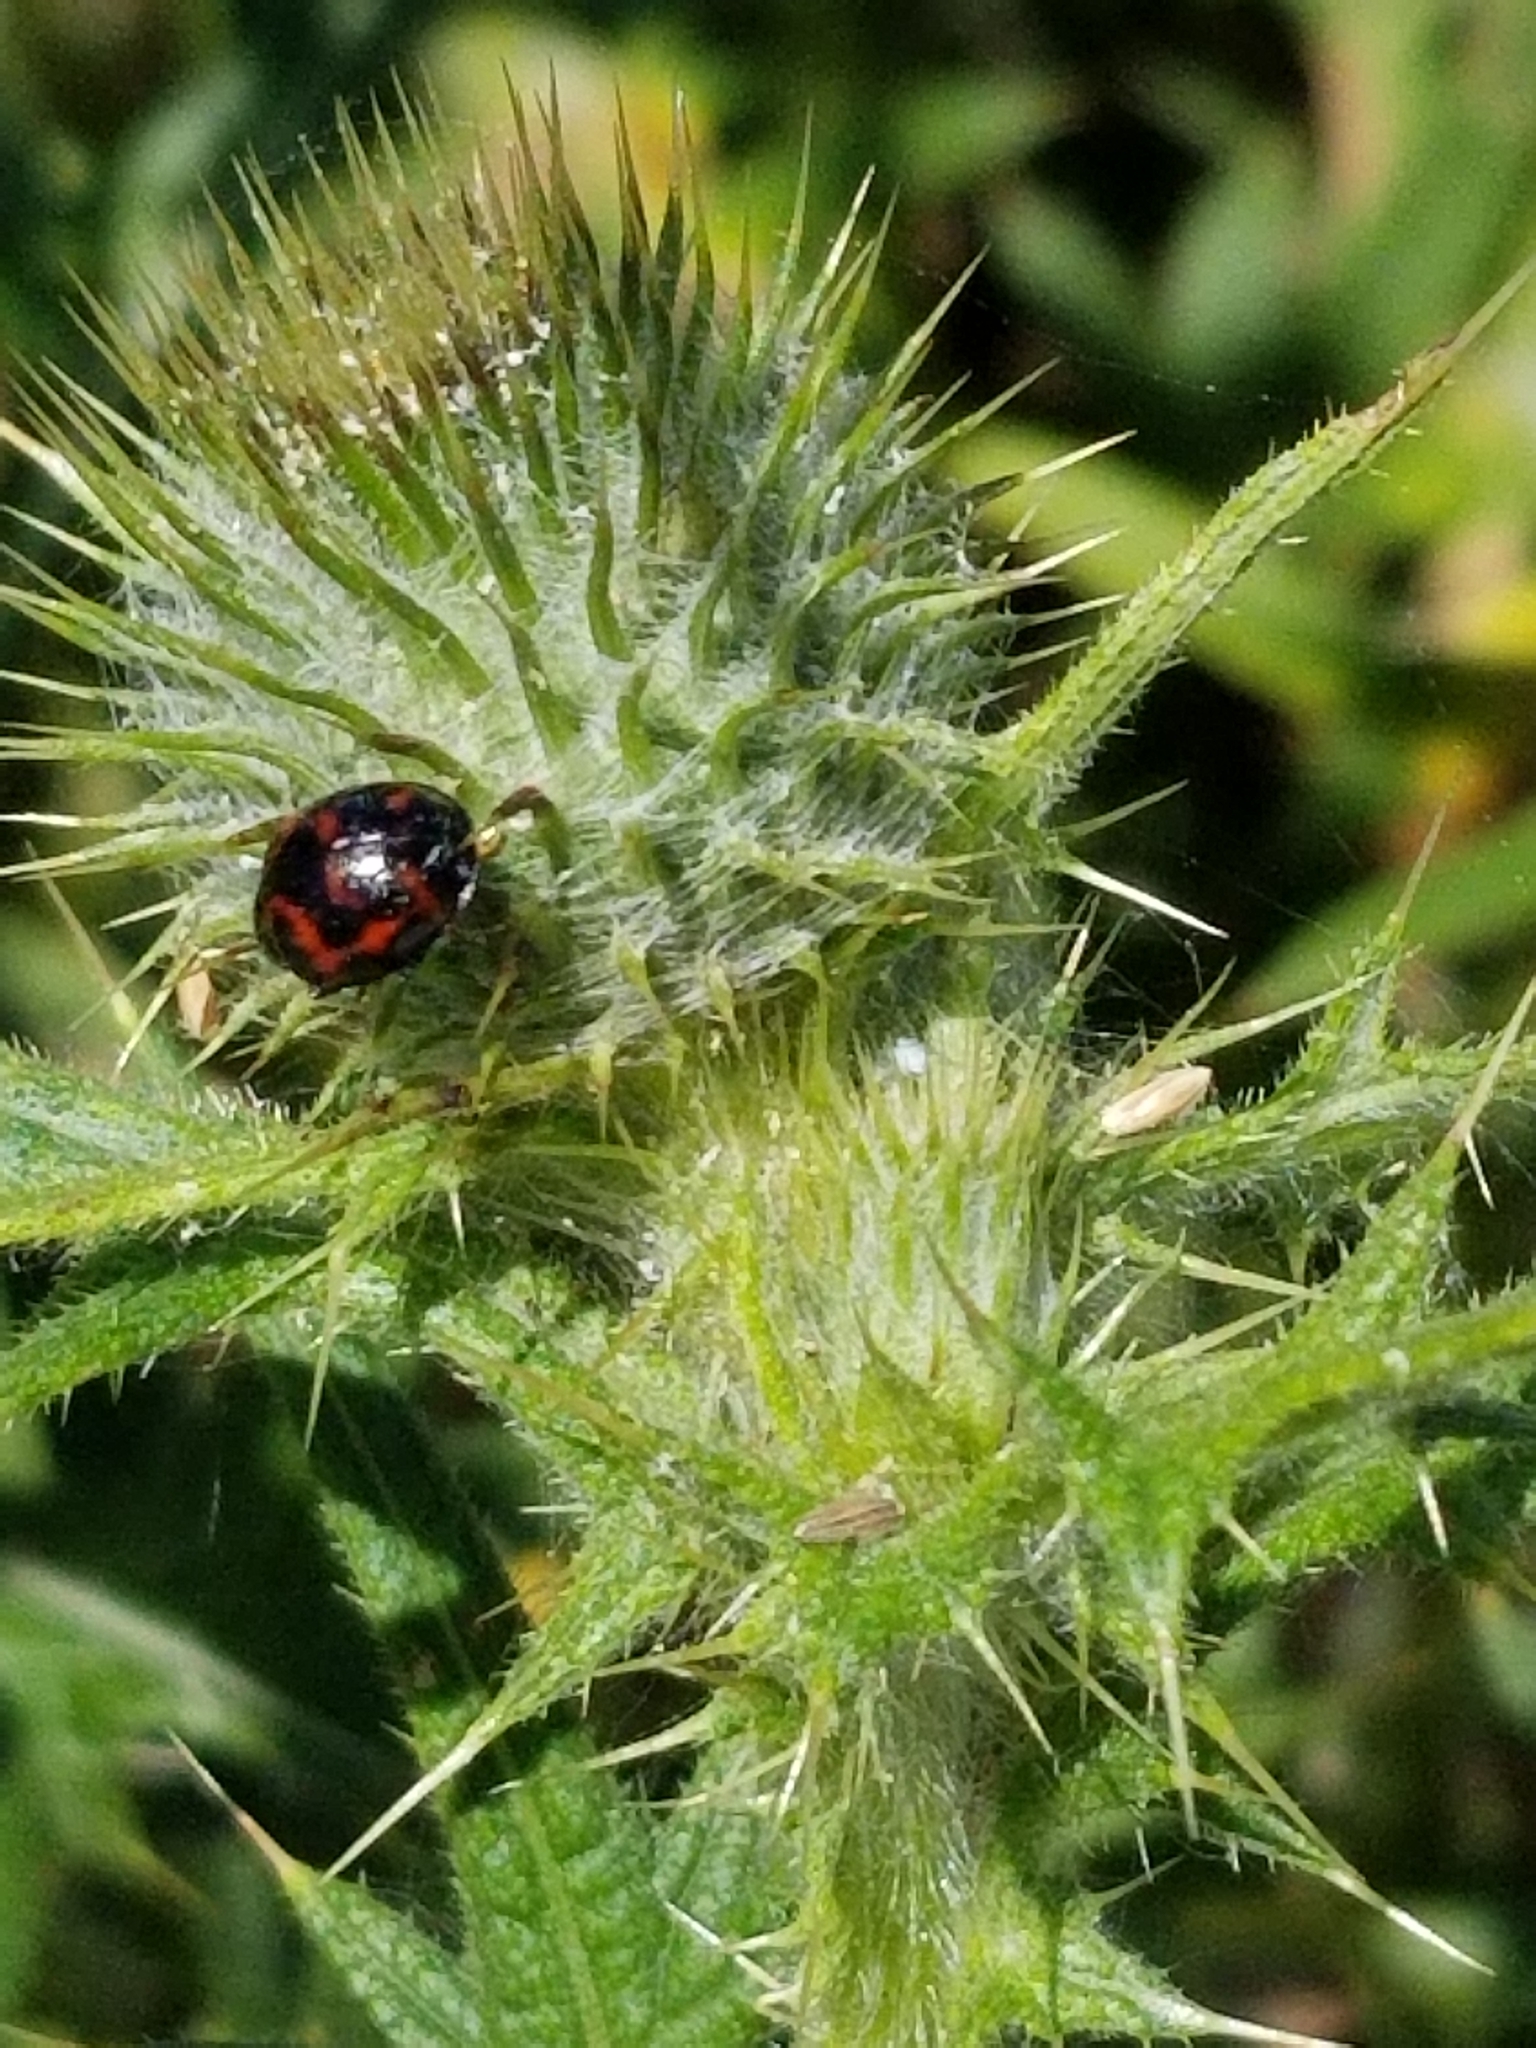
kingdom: Animalia
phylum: Arthropoda
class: Insecta
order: Coleoptera
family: Coccinellidae
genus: Harmonia
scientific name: Harmonia axyridis
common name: Harlequin ladybird
